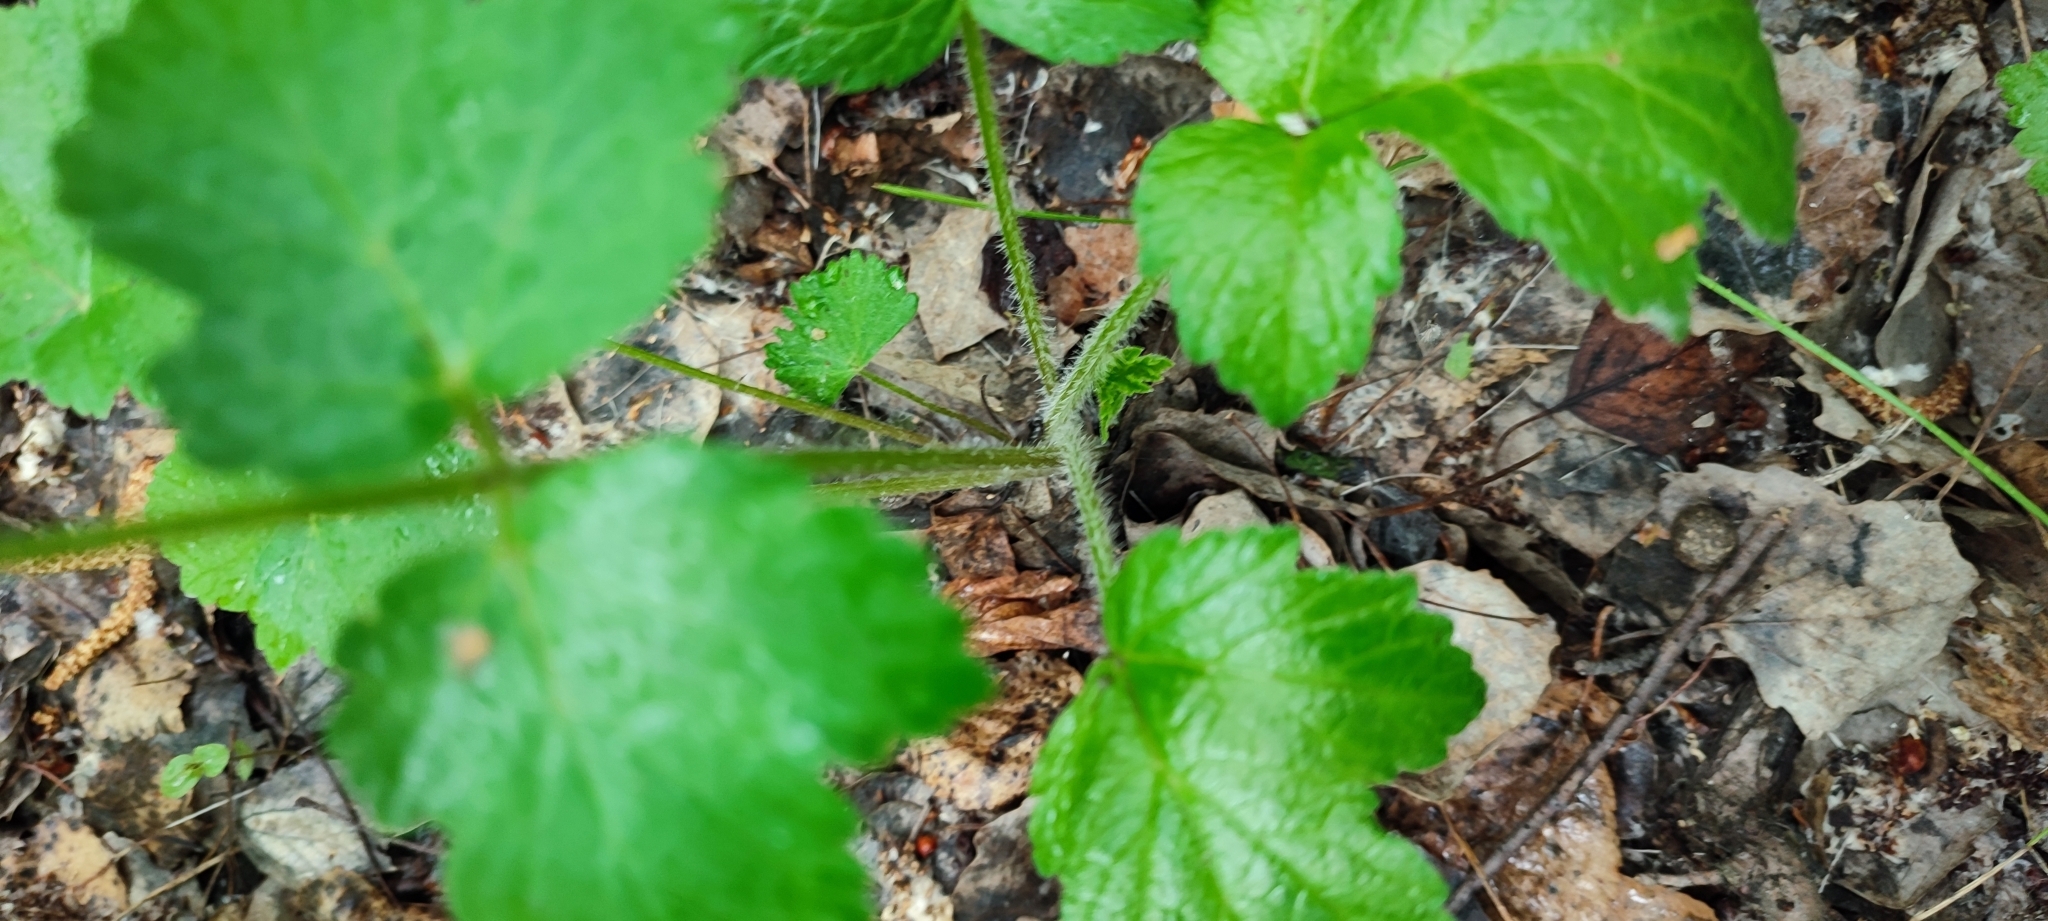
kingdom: Plantae
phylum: Tracheophyta
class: Magnoliopsida
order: Apiales
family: Apiaceae
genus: Heracleum
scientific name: Heracleum sphondylium
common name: Hogweed
